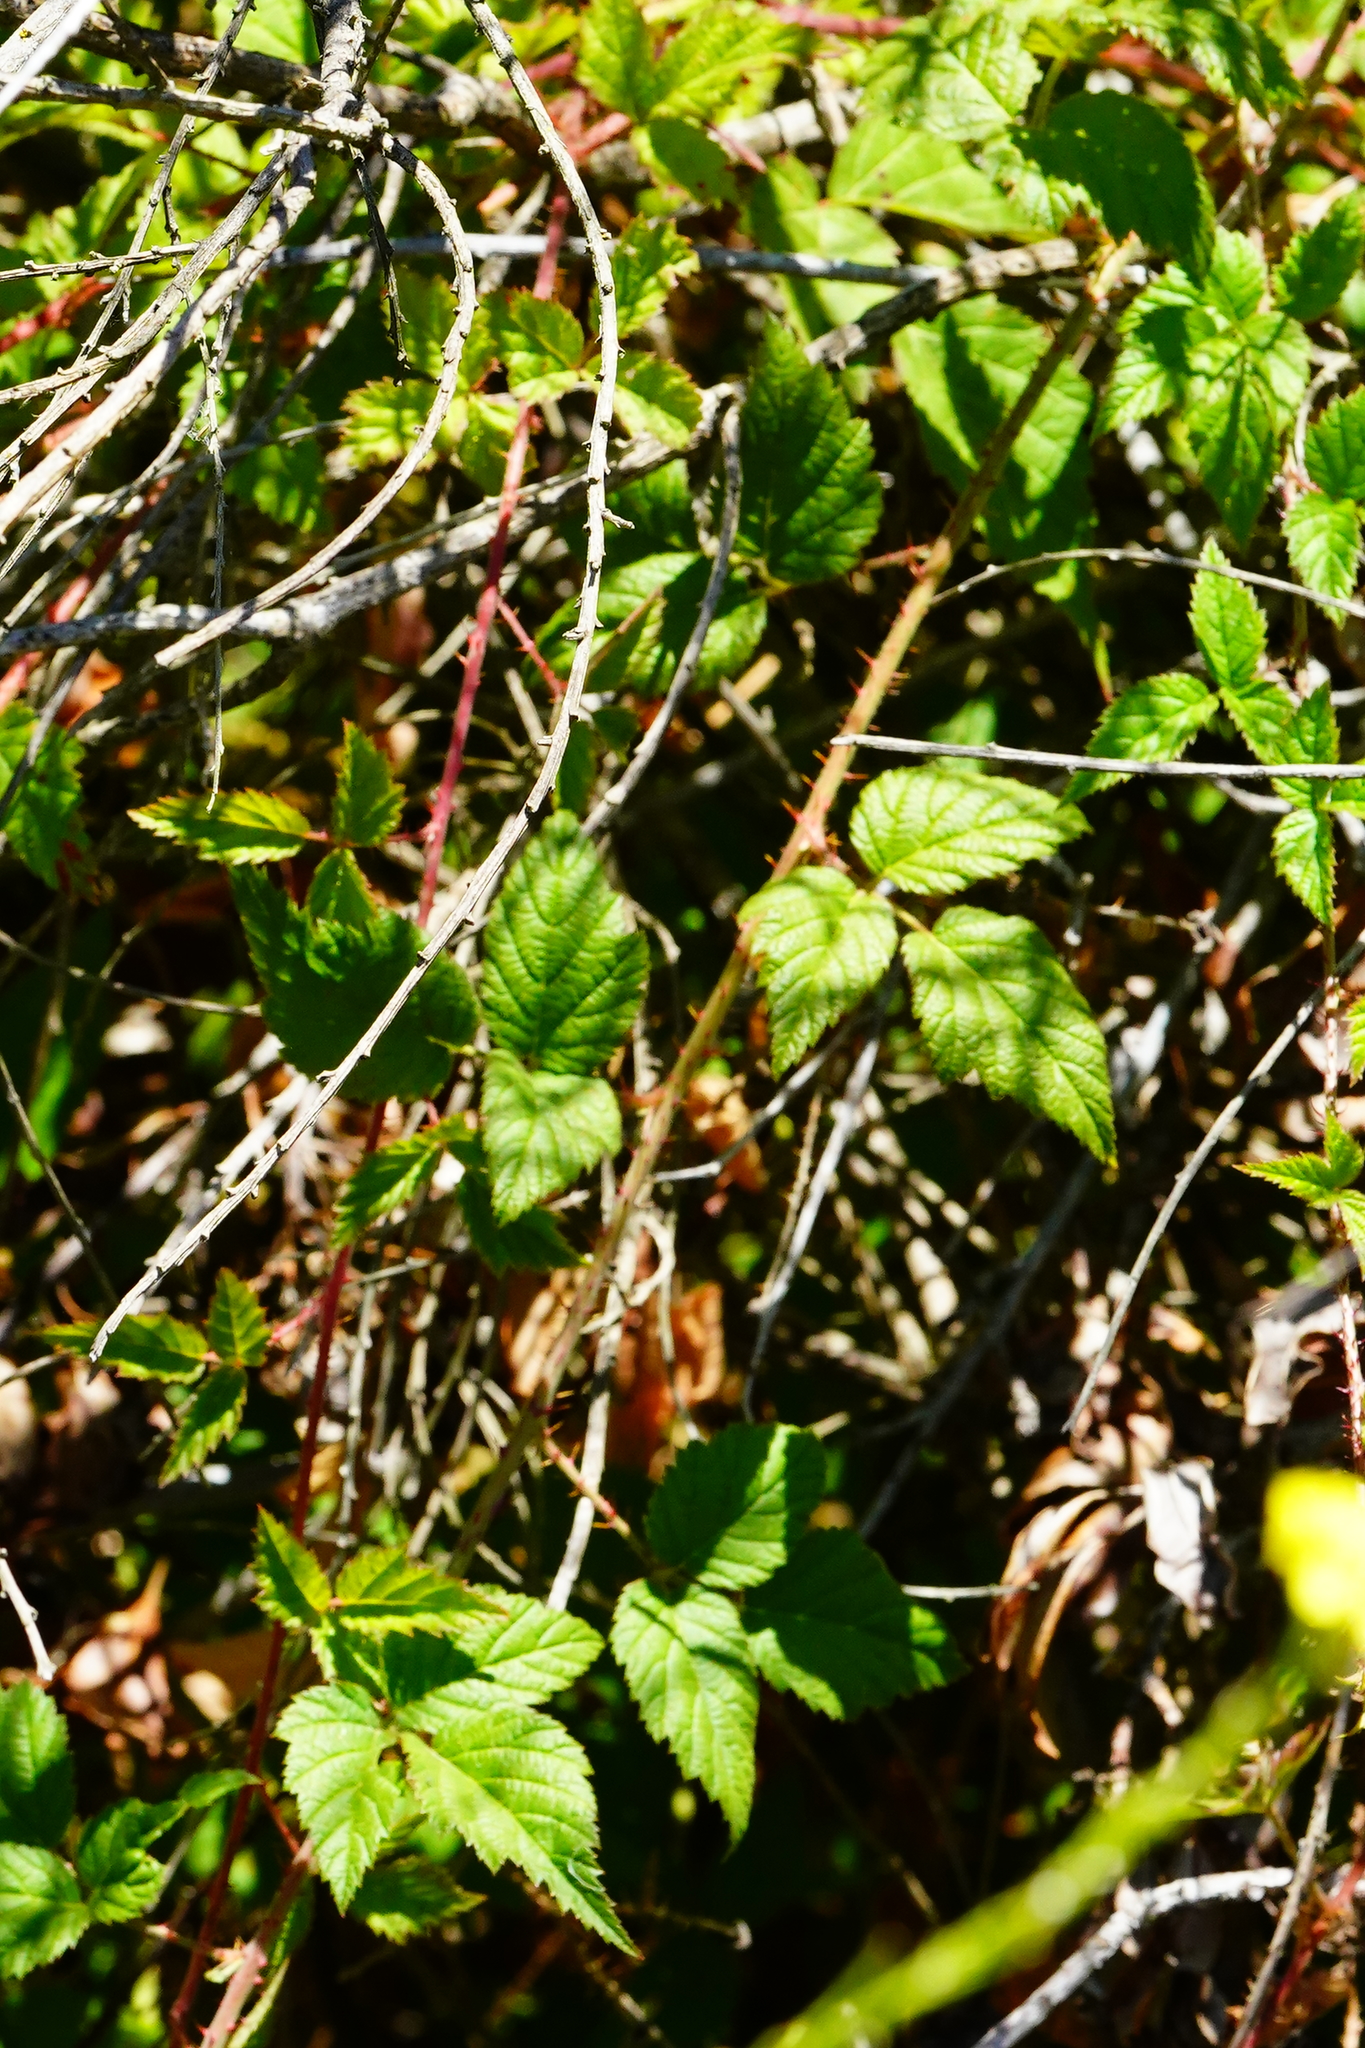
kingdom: Plantae
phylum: Tracheophyta
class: Magnoliopsida
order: Rosales
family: Rosaceae
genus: Rubus
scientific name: Rubus ursinus
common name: Pacific blackberry
